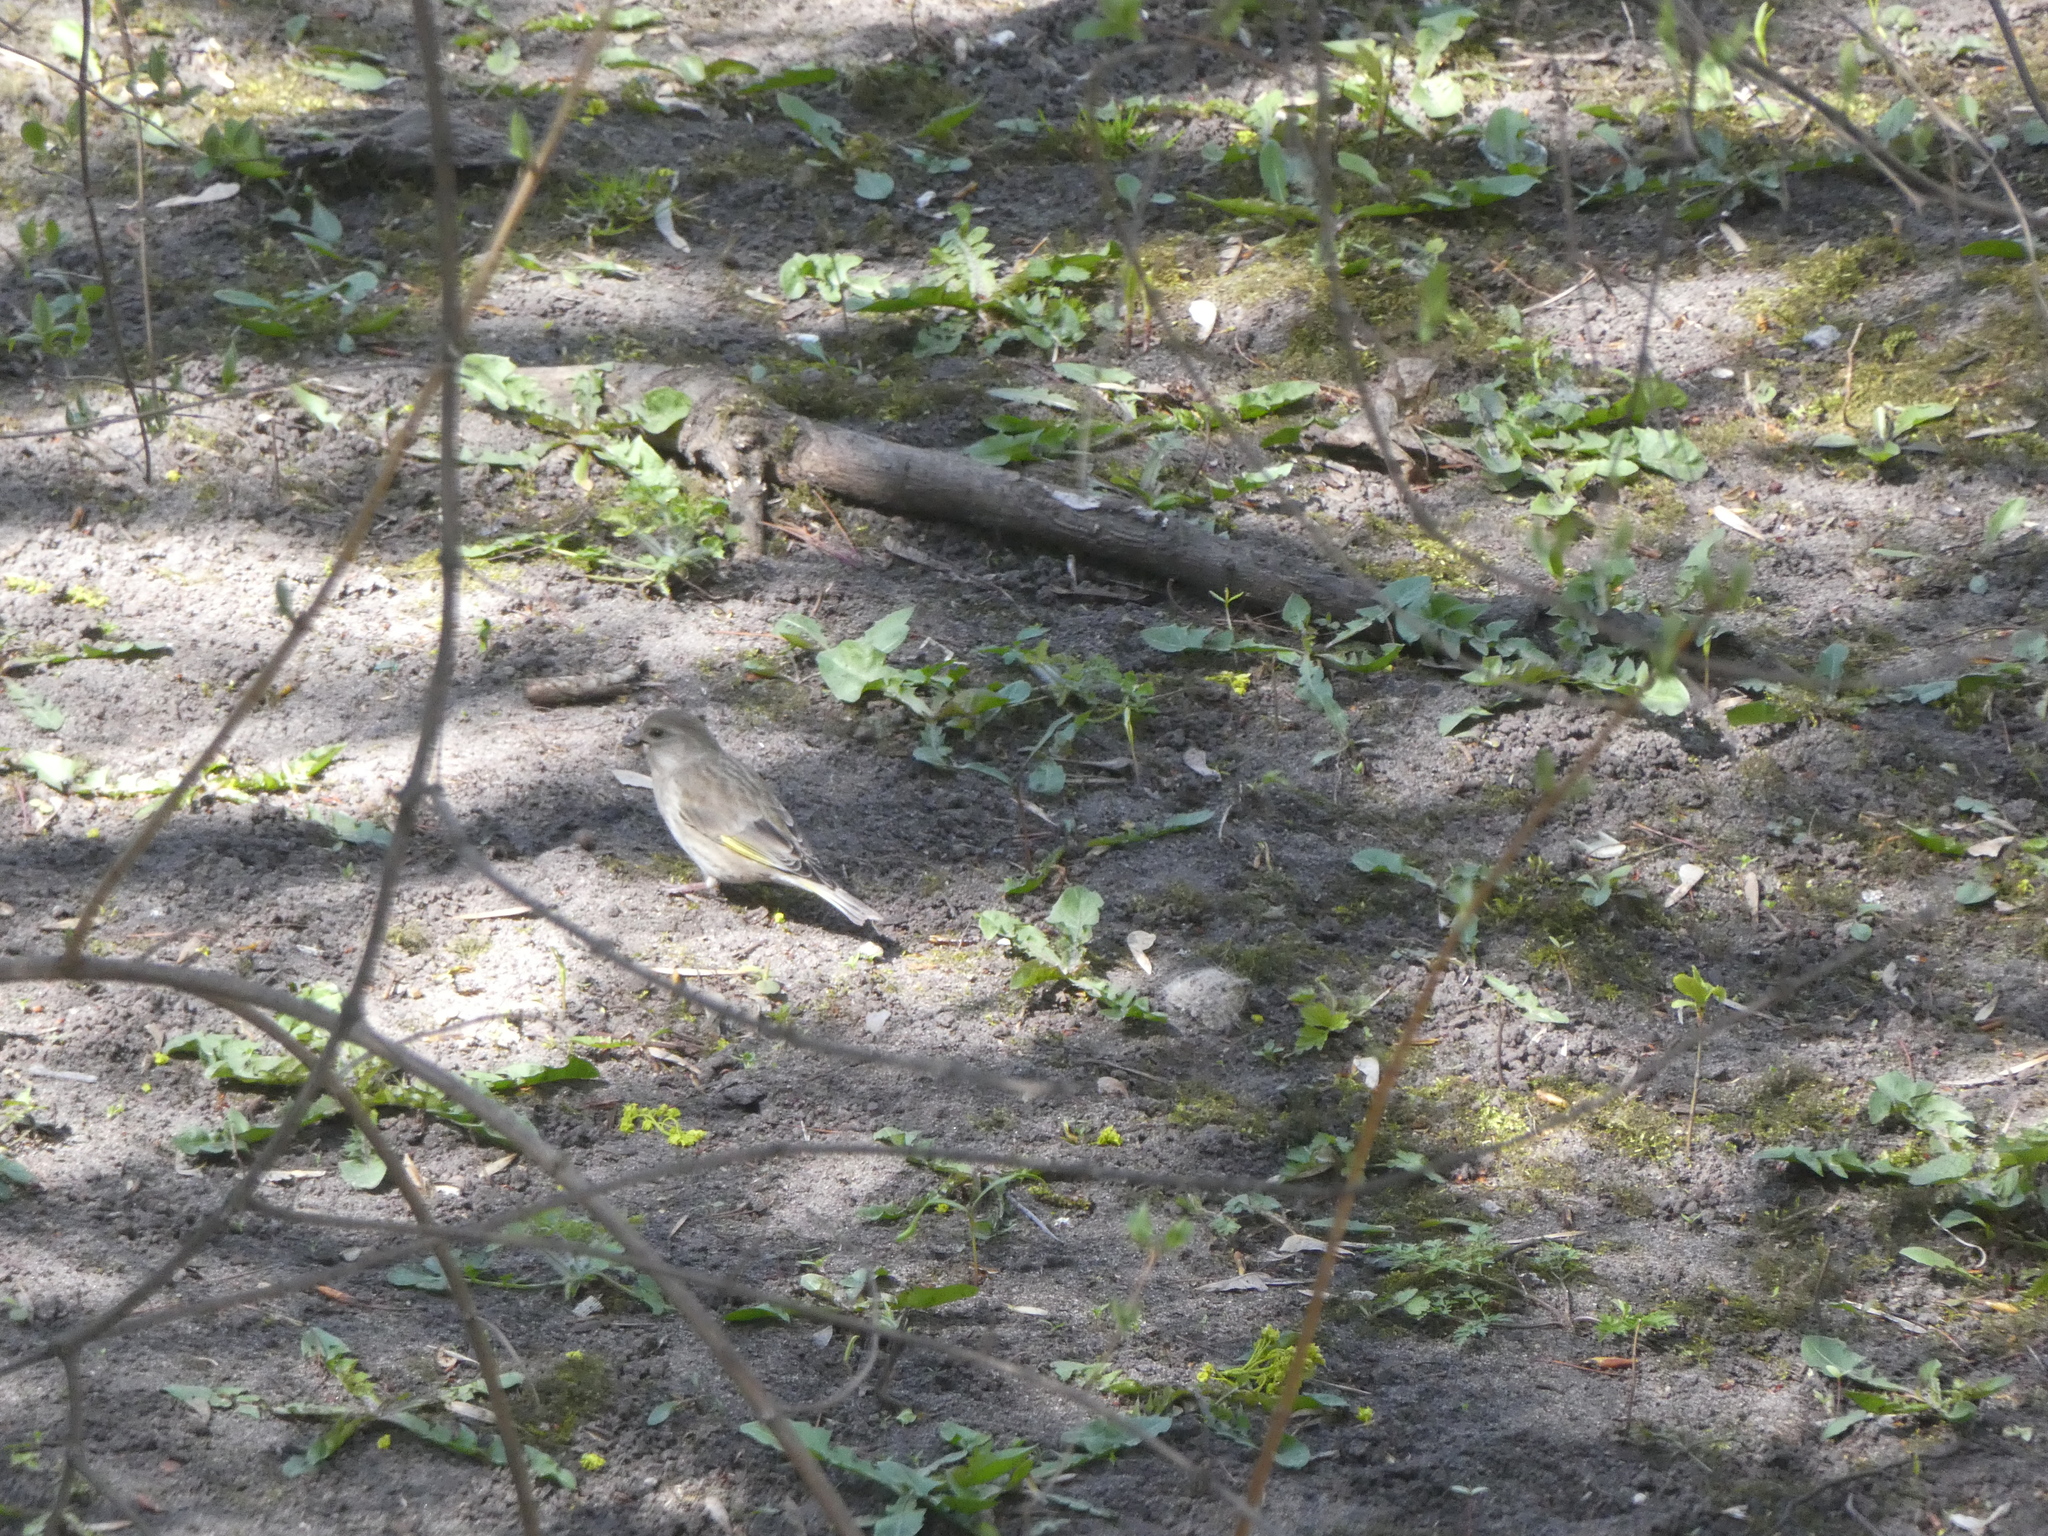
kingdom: Plantae
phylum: Tracheophyta
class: Liliopsida
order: Poales
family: Poaceae
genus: Chloris
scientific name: Chloris chloris
